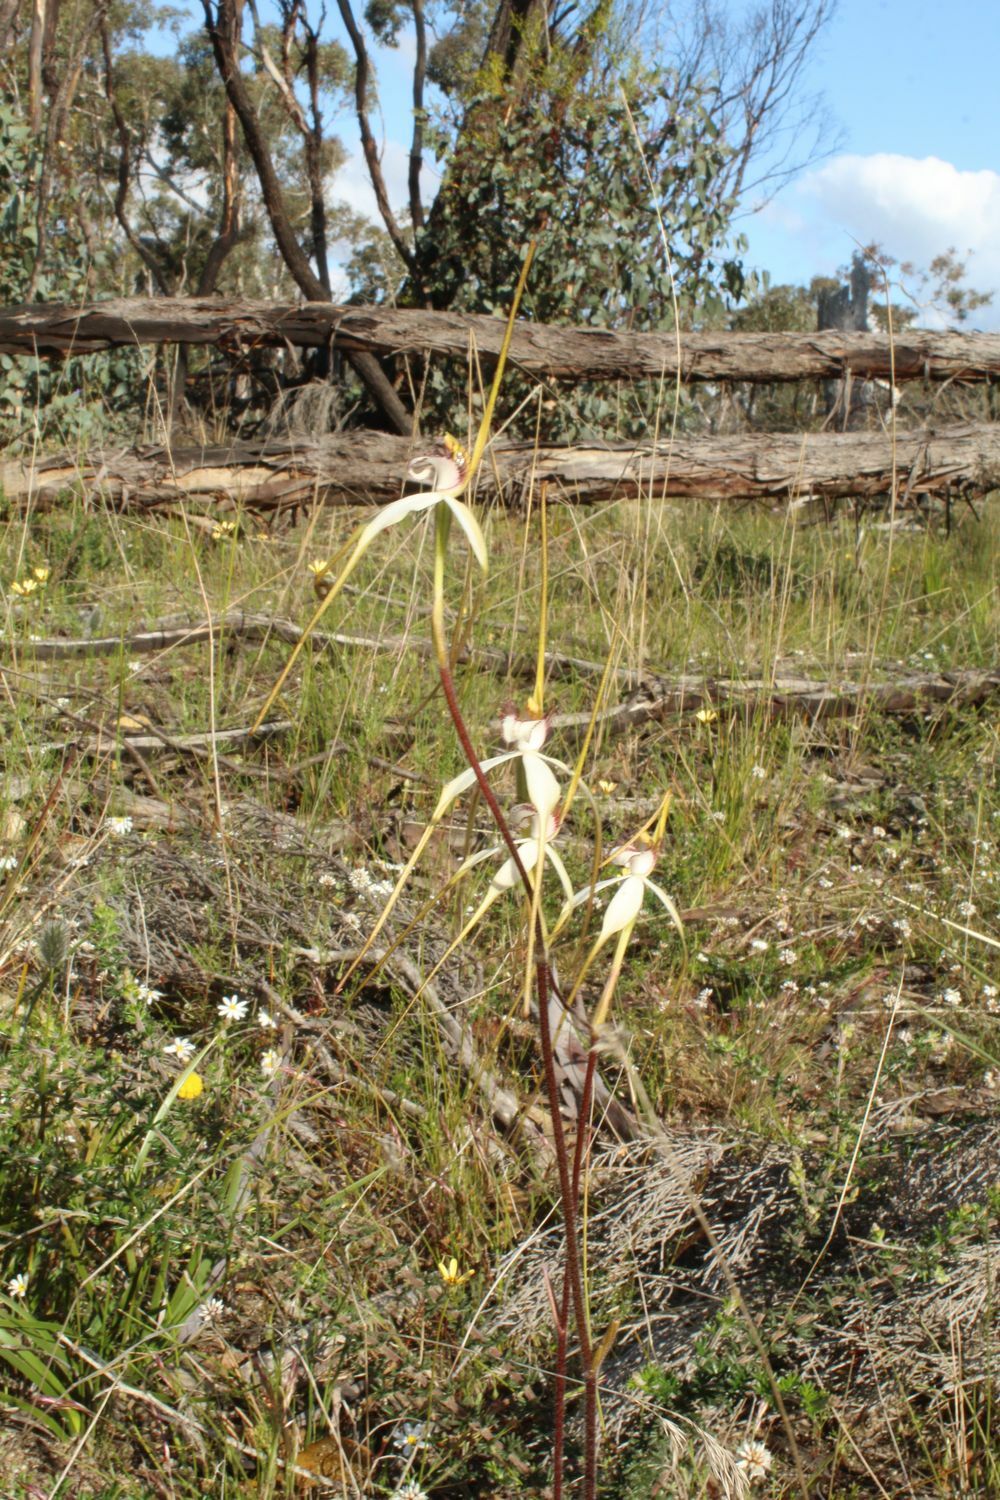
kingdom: Plantae
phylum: Tracheophyta
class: Liliopsida
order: Asparagales
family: Orchidaceae
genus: Caladenia
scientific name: Caladenia longicauda
